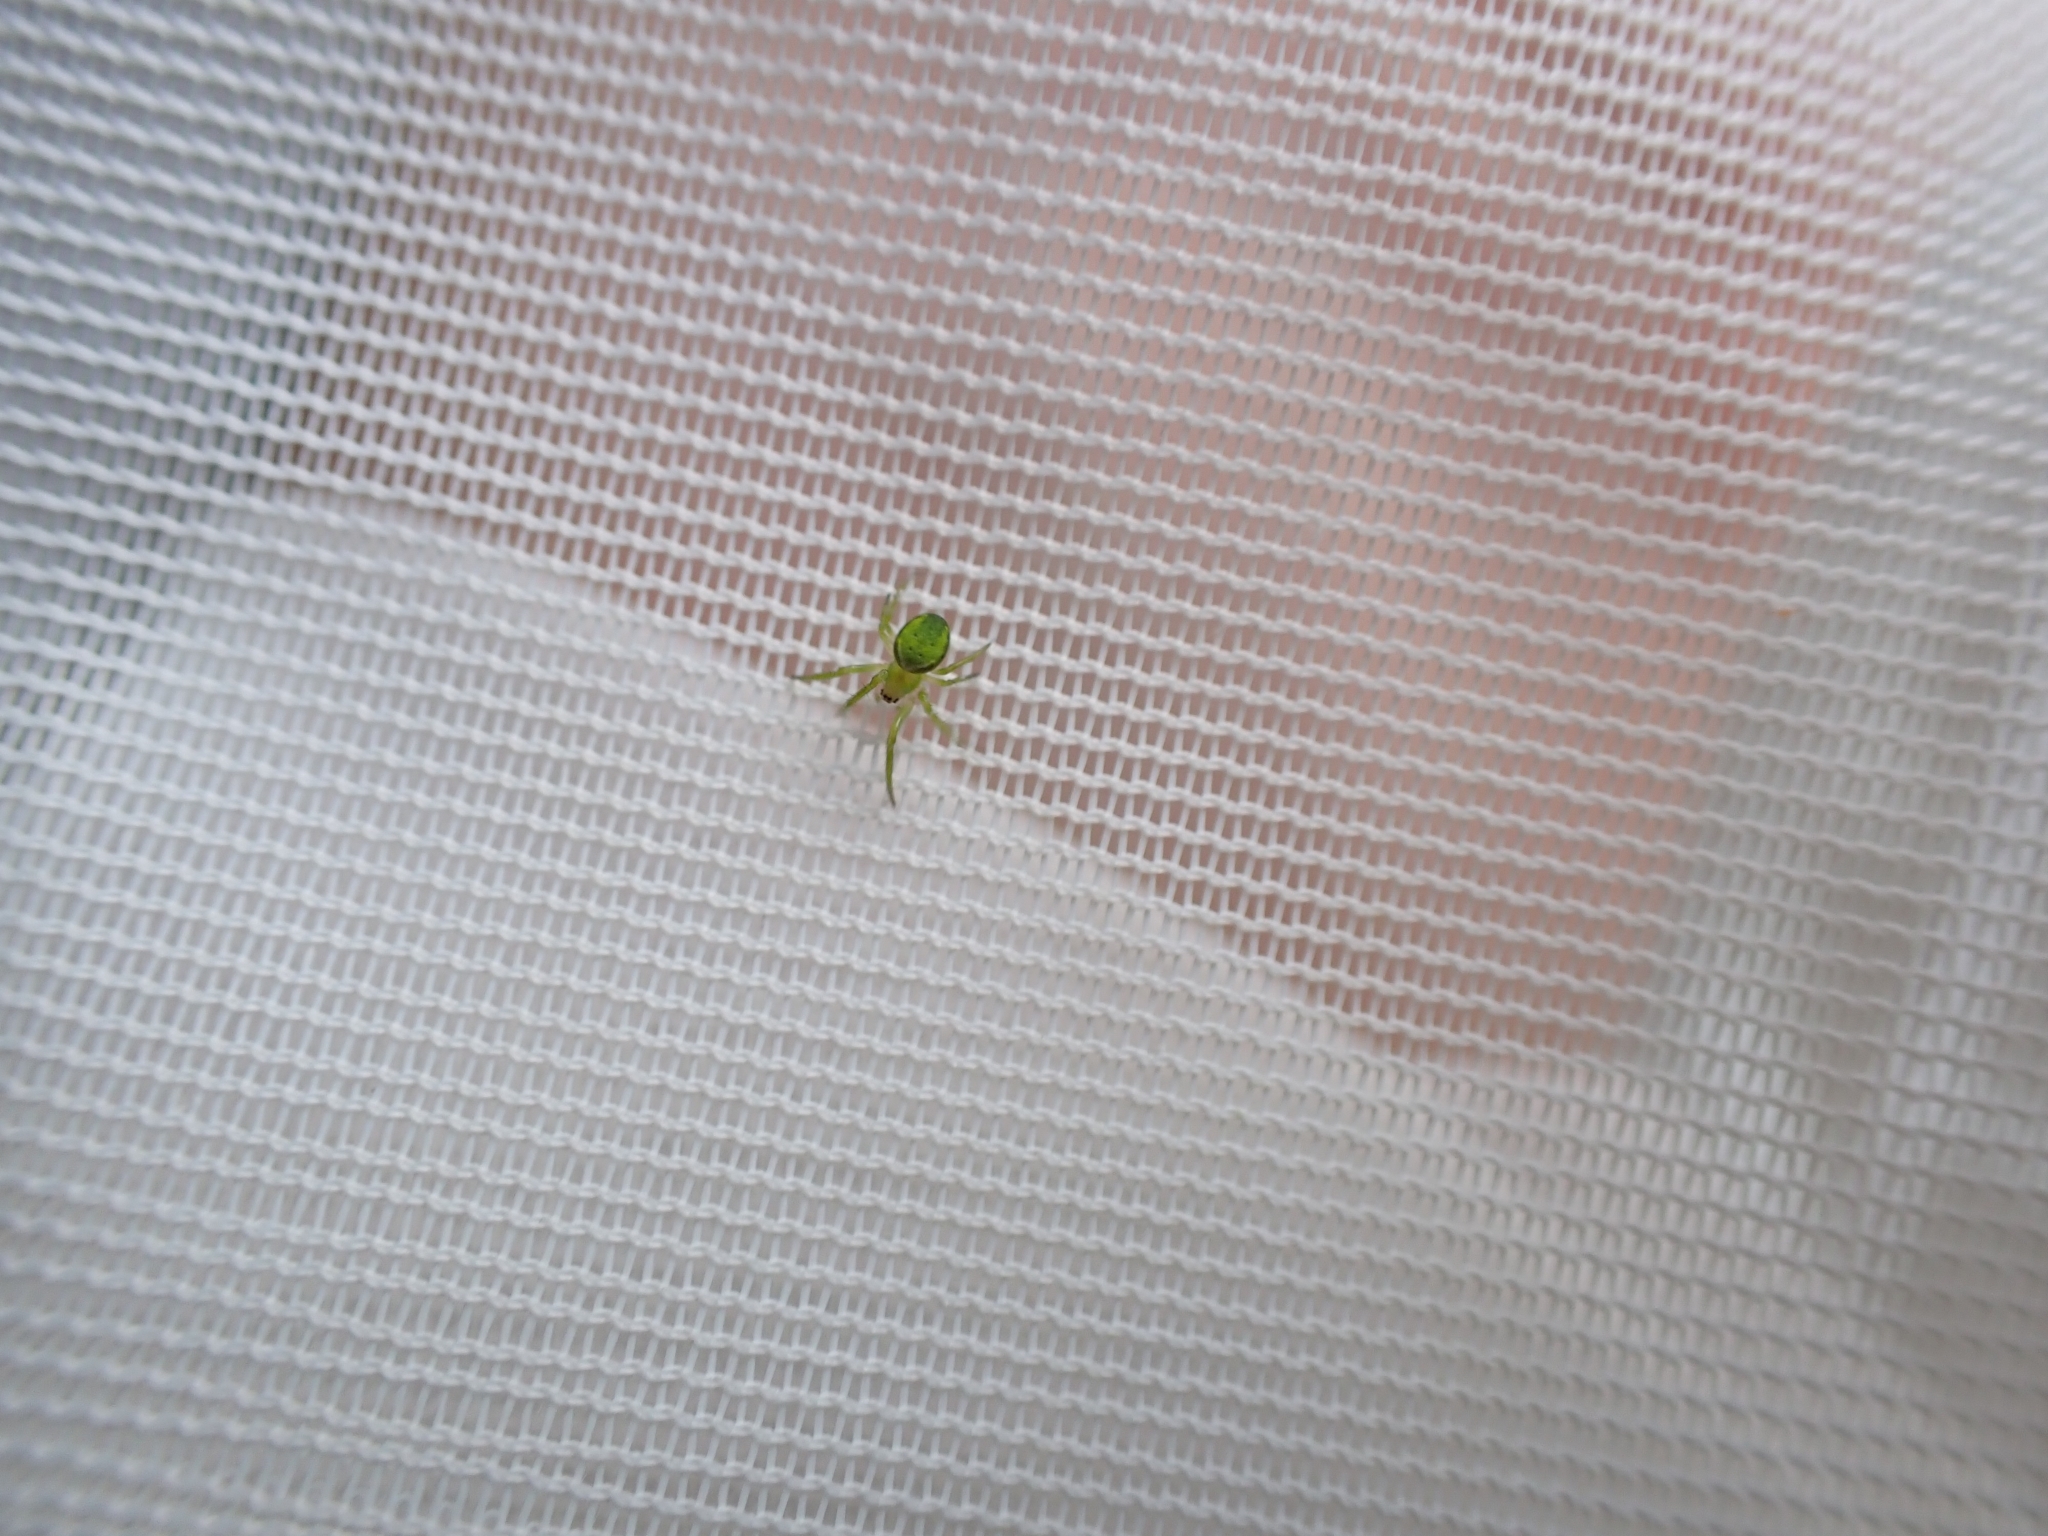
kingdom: Animalia
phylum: Arthropoda
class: Arachnida
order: Araneae
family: Araneidae
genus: Colaranea
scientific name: Colaranea viriditas
